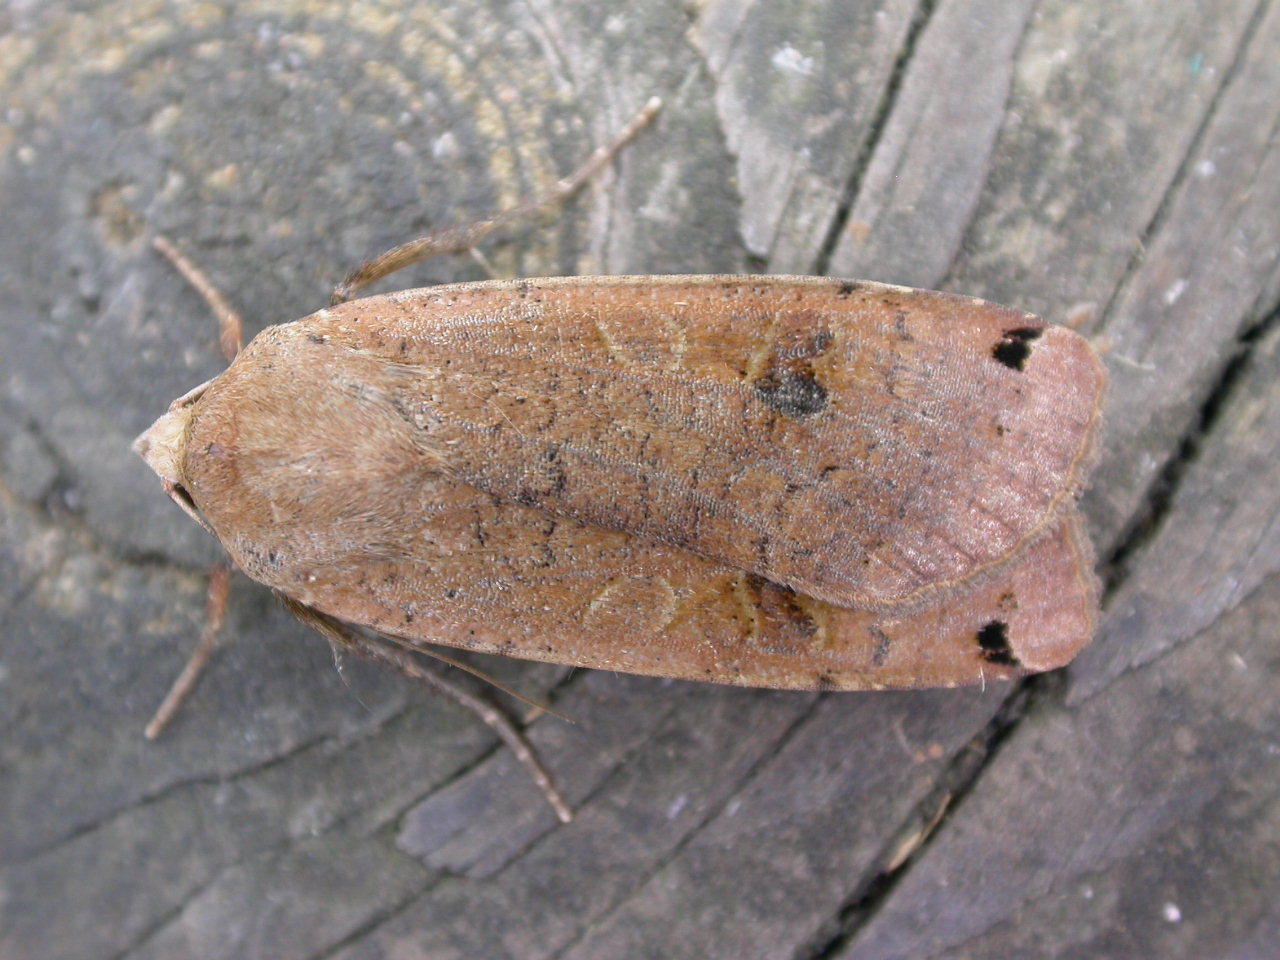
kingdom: Animalia
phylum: Arthropoda
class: Insecta
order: Lepidoptera
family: Noctuidae
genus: Noctua
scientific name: Noctua pronuba
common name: Large yellow underwing
